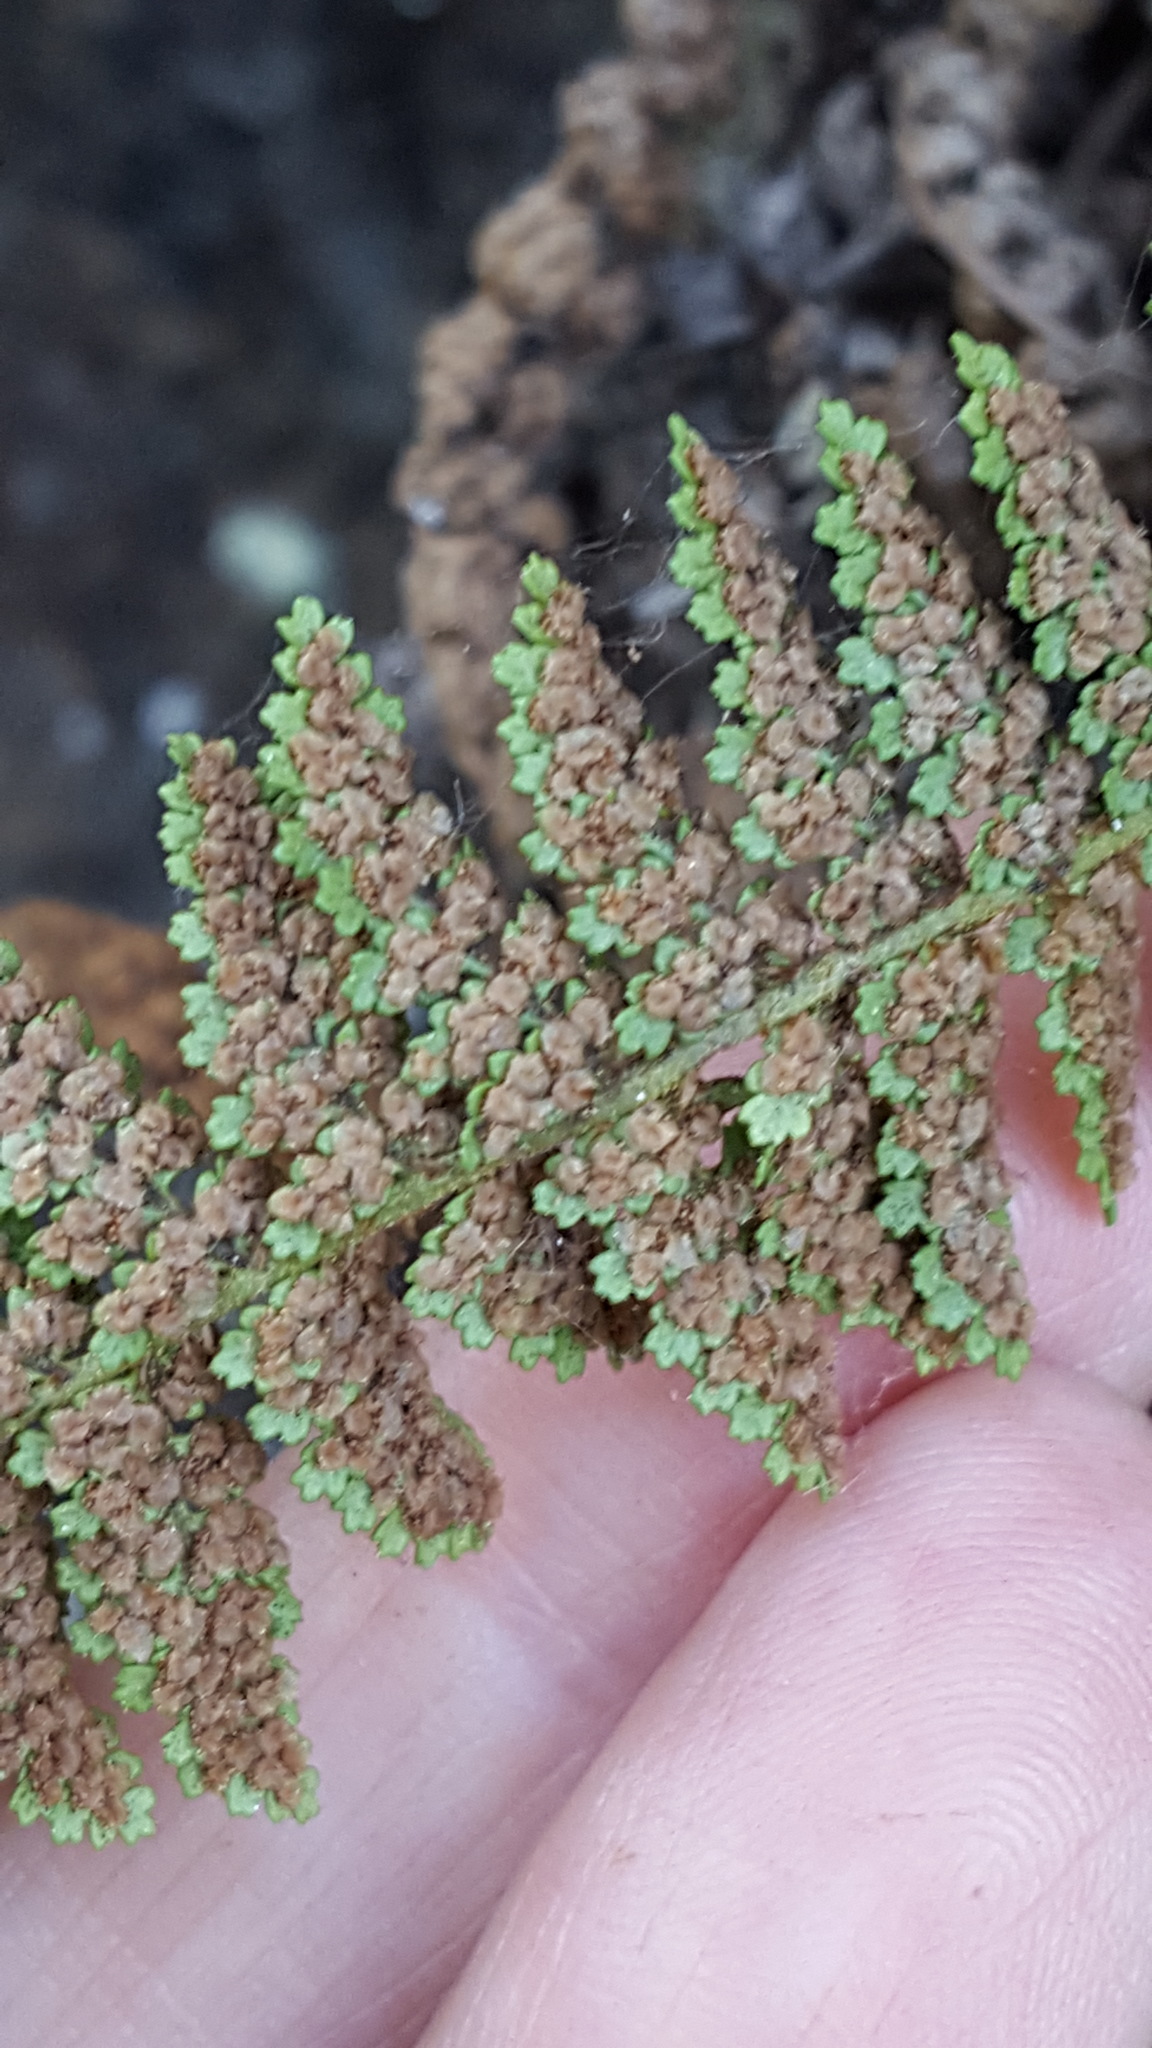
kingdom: Plantae
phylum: Tracheophyta
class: Polypodiopsida
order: Polypodiales
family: Dryopteridaceae
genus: Dryopteris
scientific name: Dryopteris fragrans
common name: Fragrant wood fern
